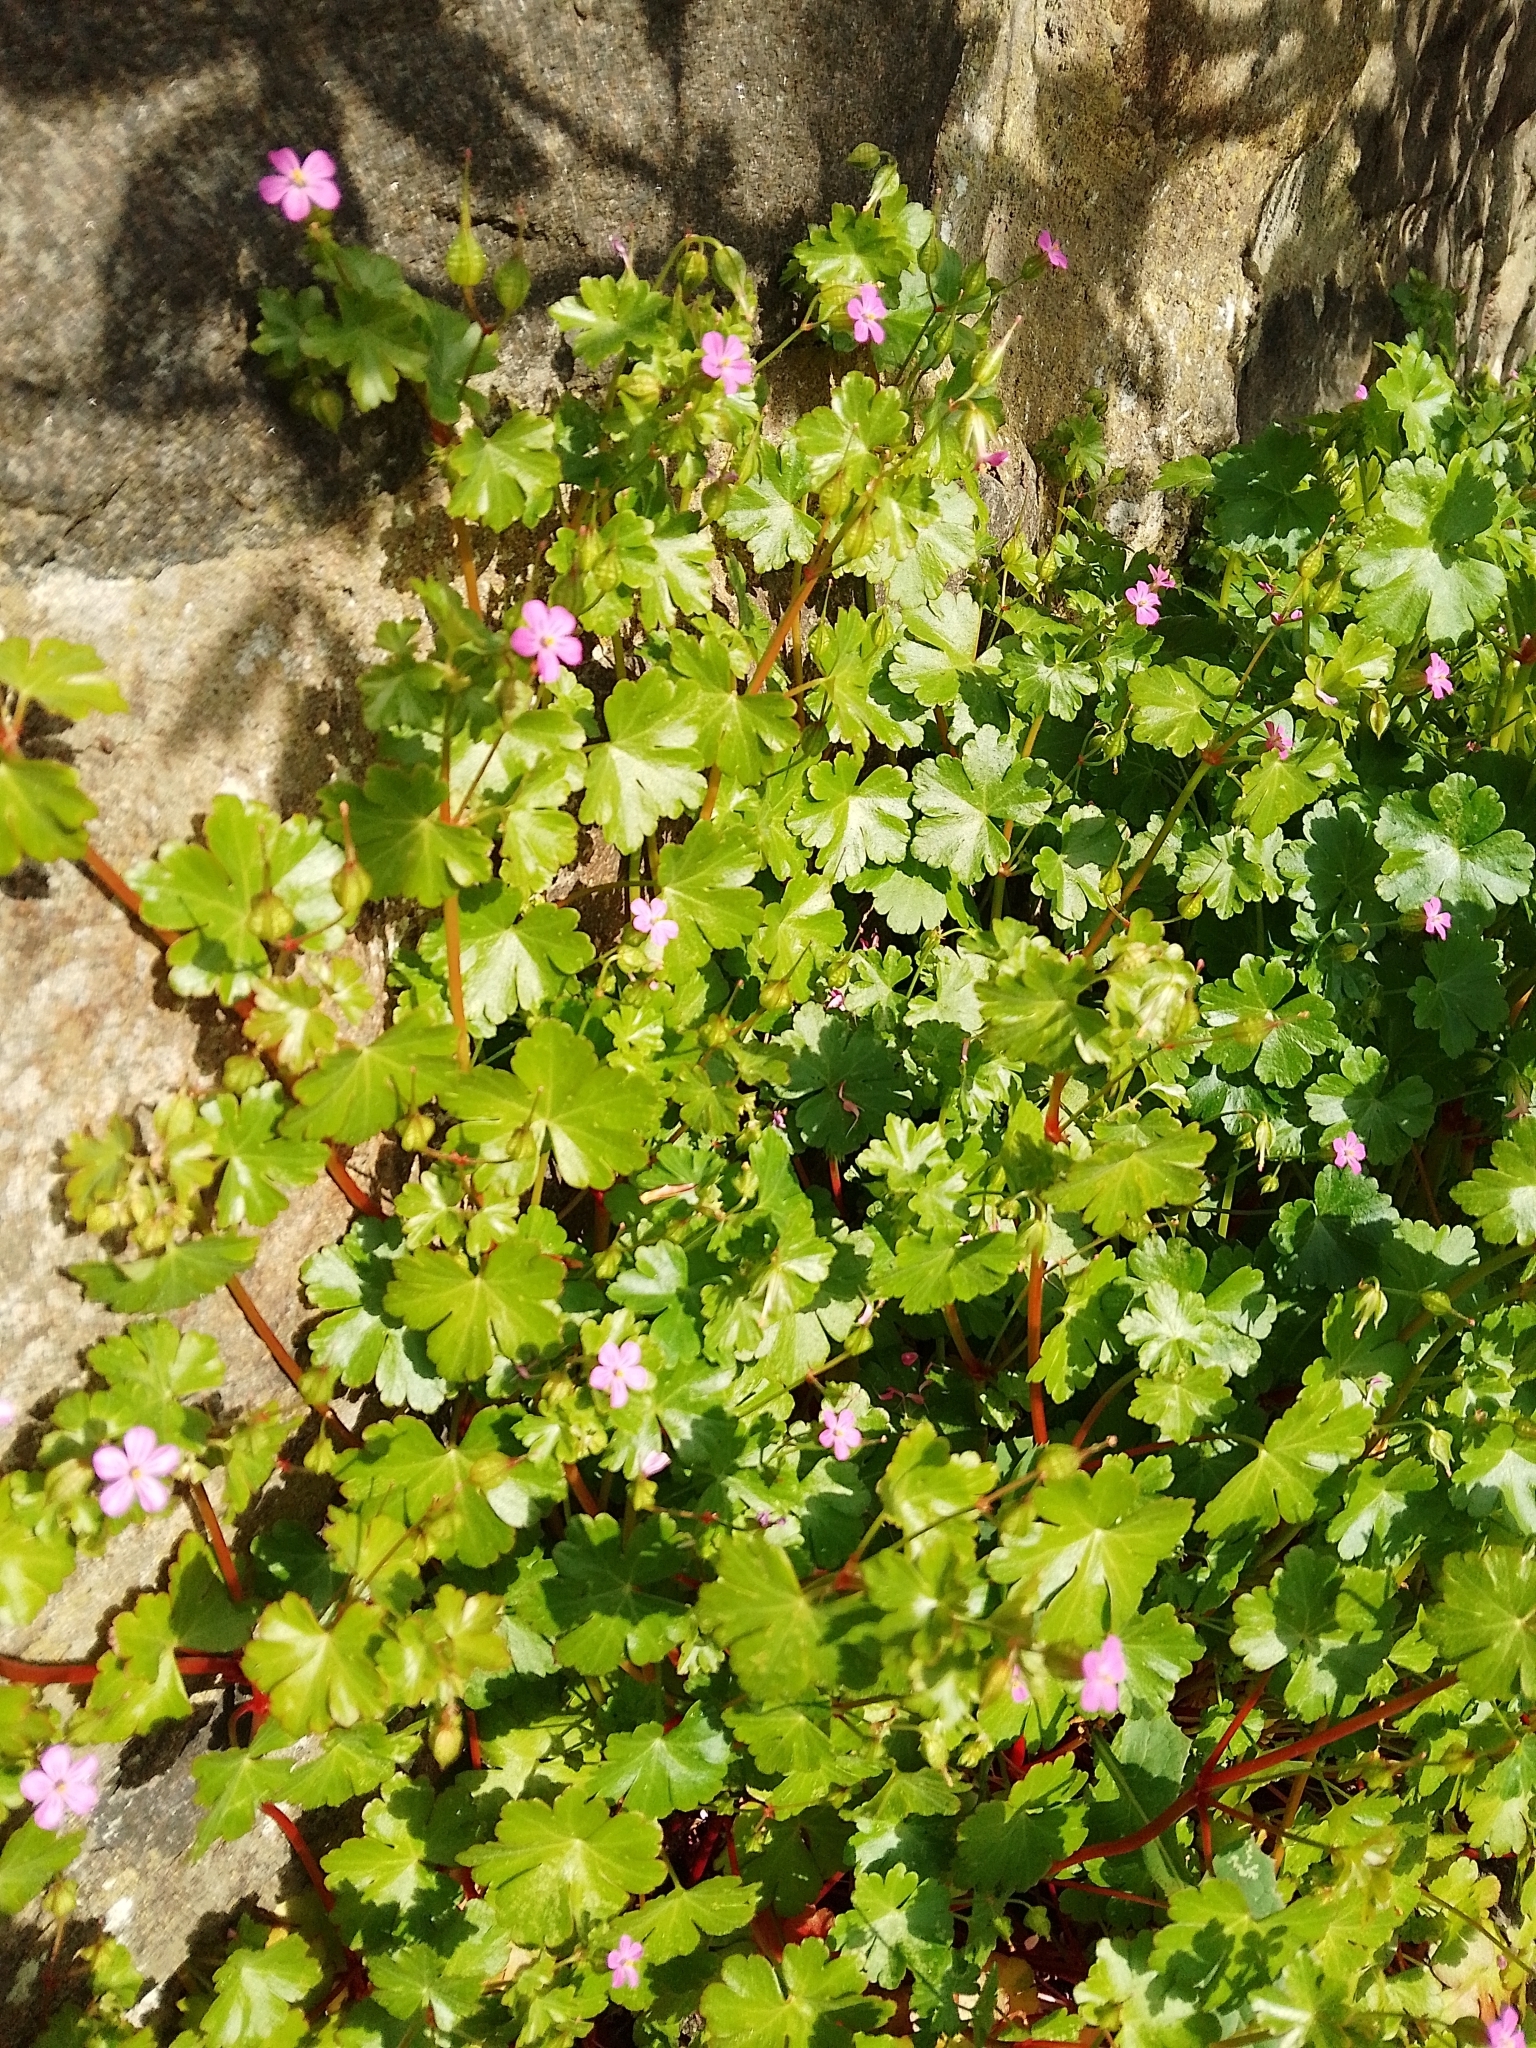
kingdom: Plantae
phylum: Tracheophyta
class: Magnoliopsida
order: Geraniales
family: Geraniaceae
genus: Geranium
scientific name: Geranium lucidum
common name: Shining crane's-bill
